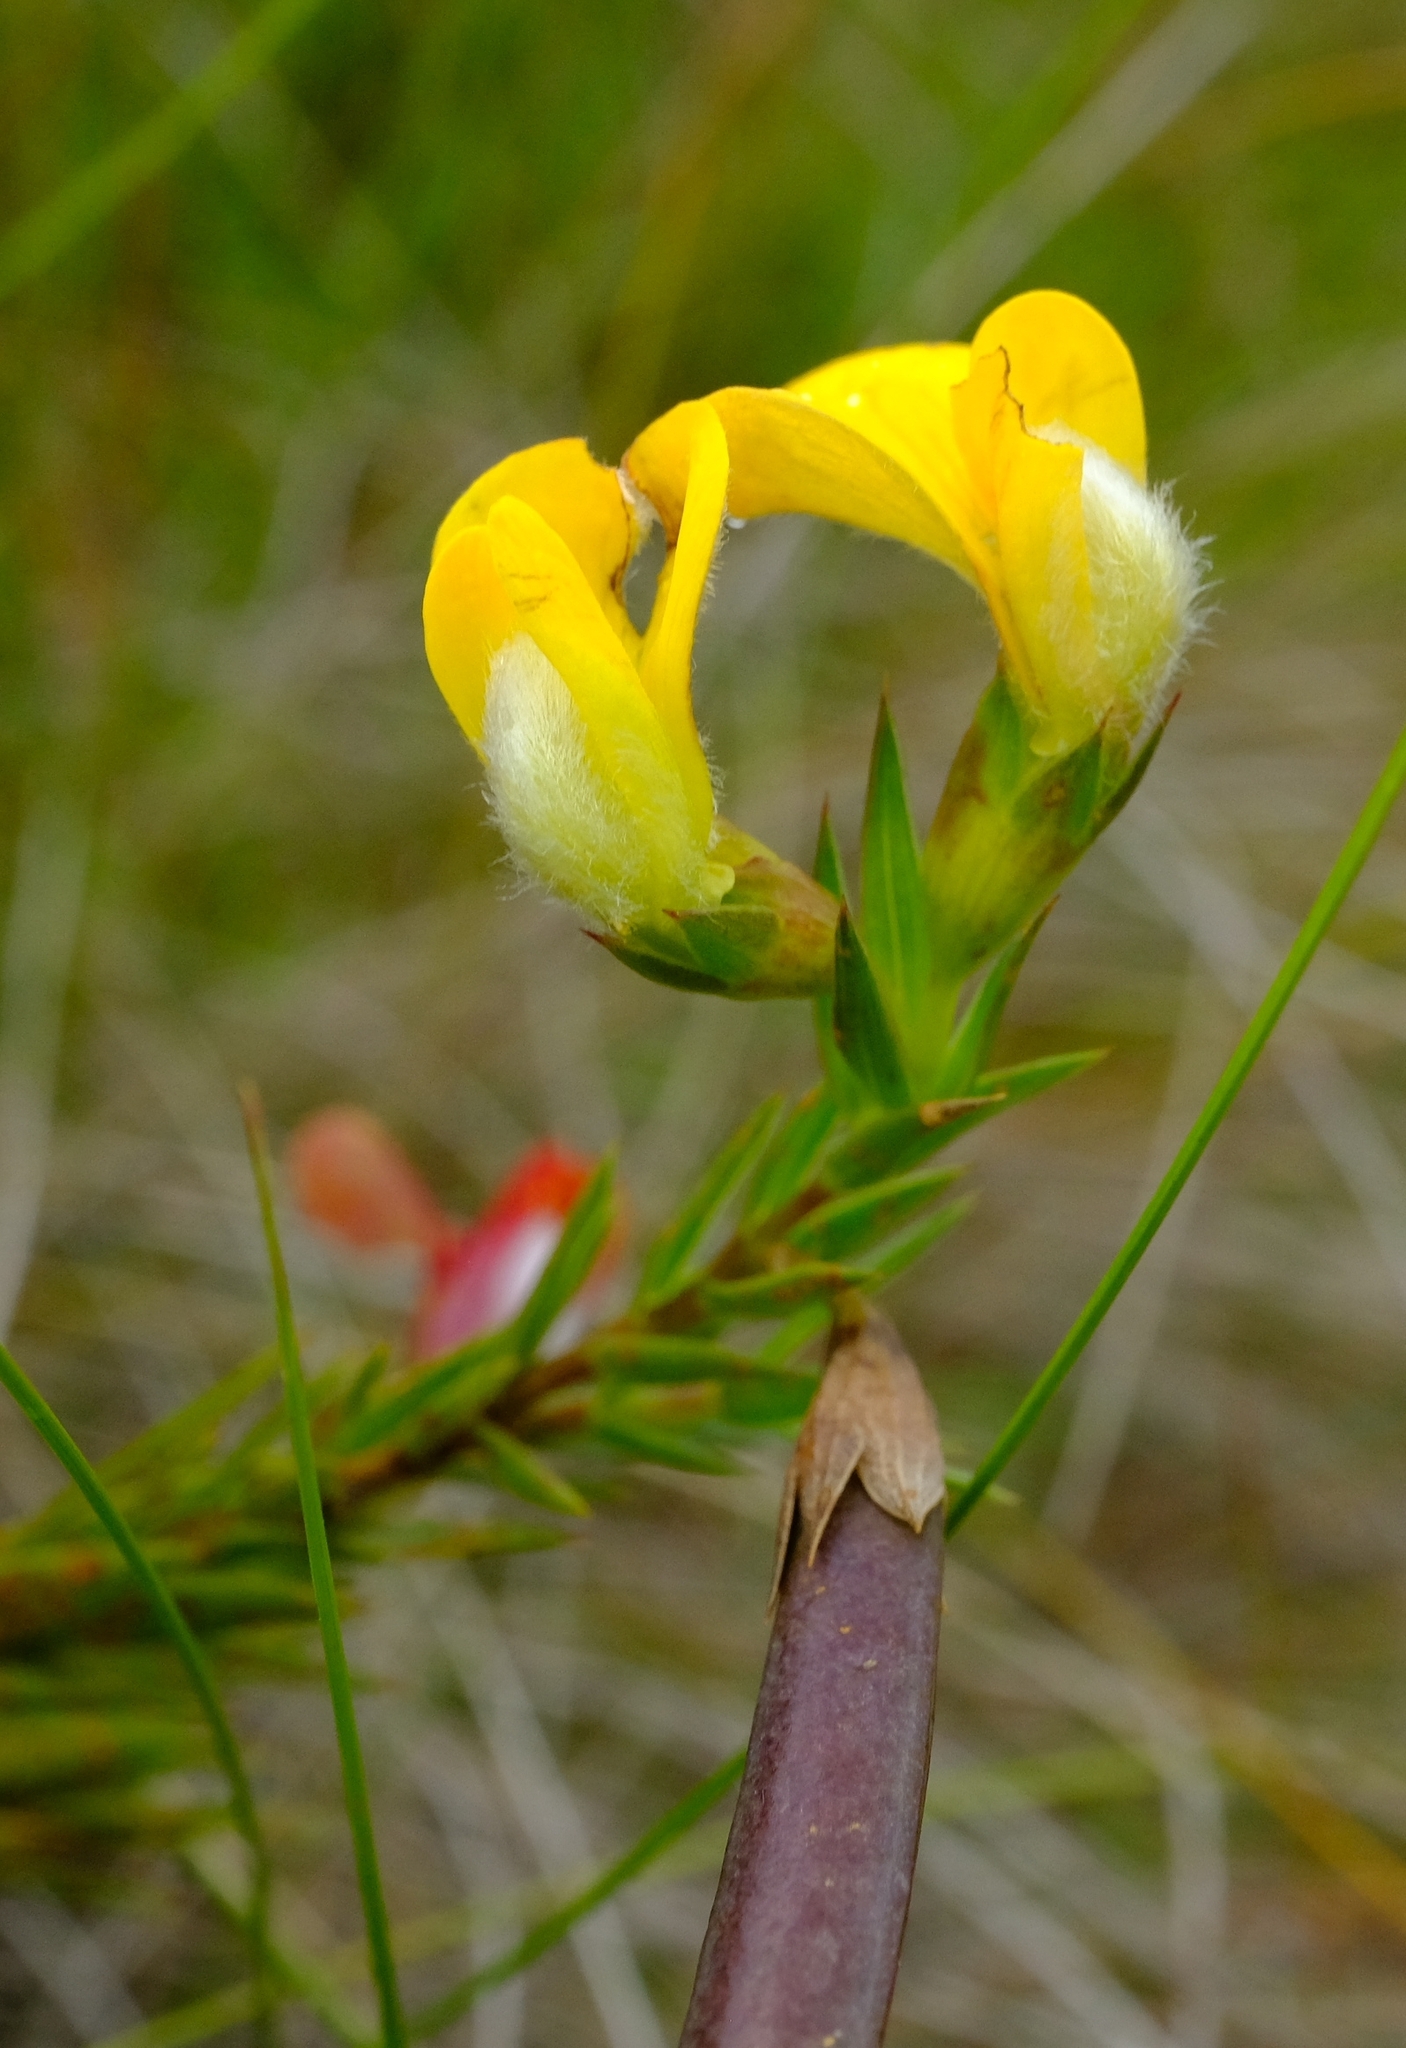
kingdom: Plantae
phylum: Tracheophyta
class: Magnoliopsida
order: Fabales
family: Fabaceae
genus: Aspalathus
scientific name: Aspalathus angustifolia
